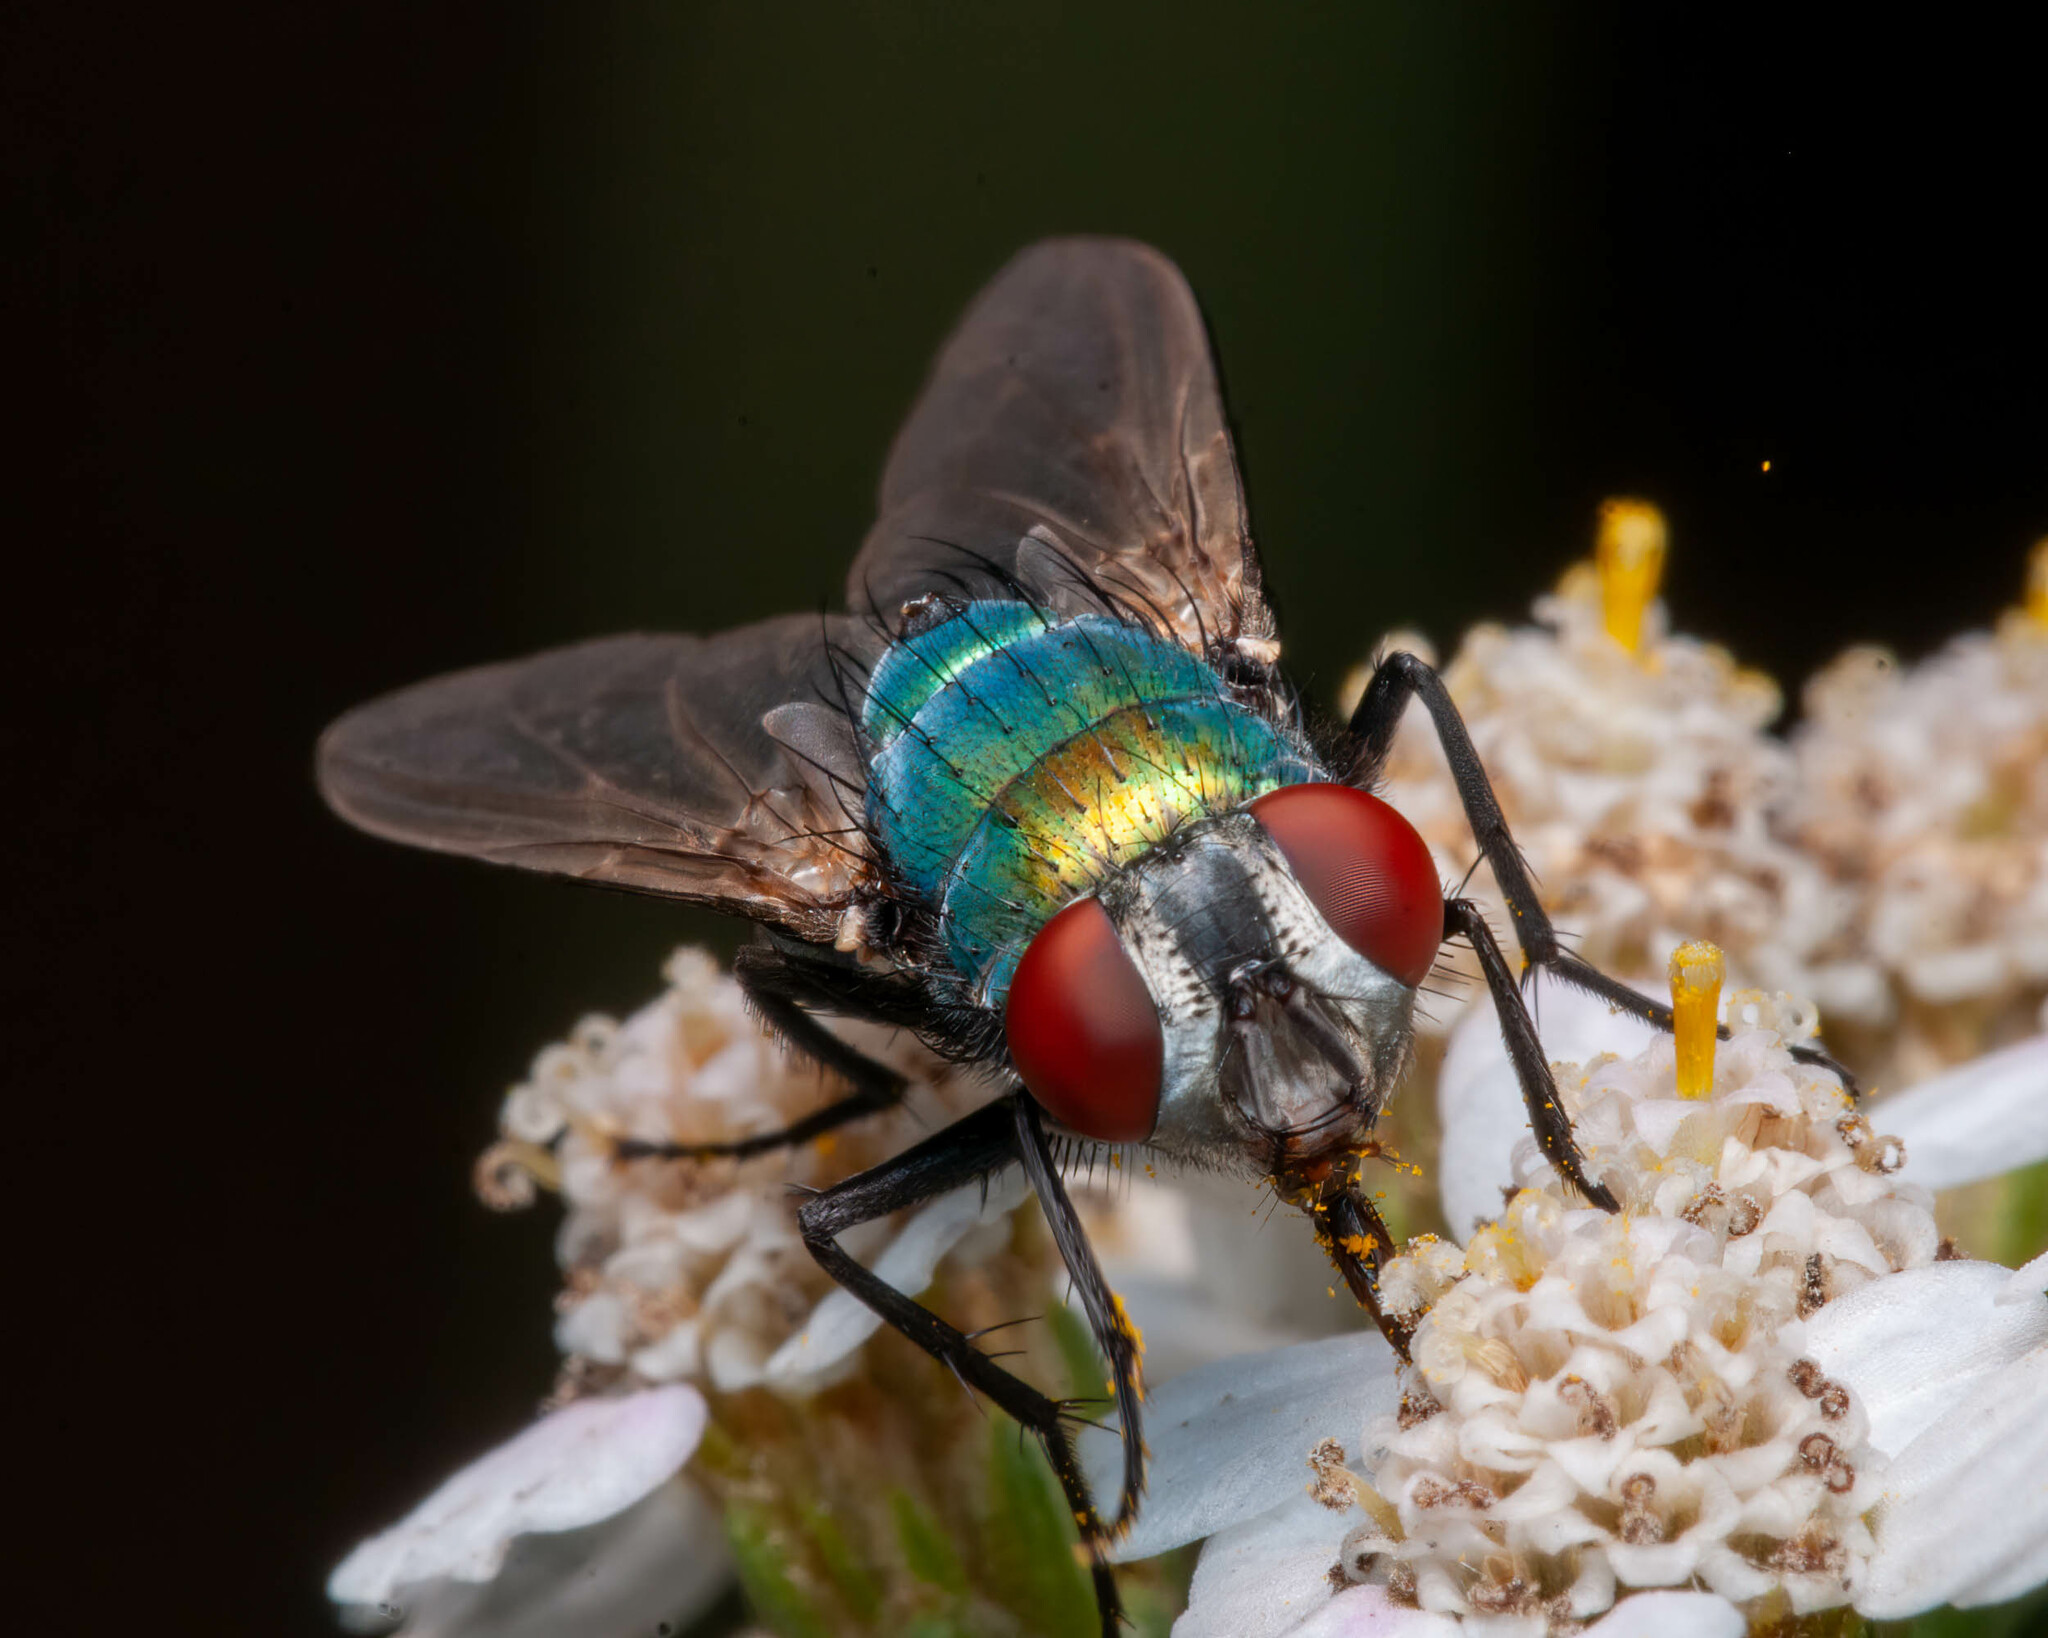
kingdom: Animalia
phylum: Arthropoda
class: Insecta
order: Diptera
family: Calliphoridae
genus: Lucilia
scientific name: Lucilia sericata
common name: Blow fly
